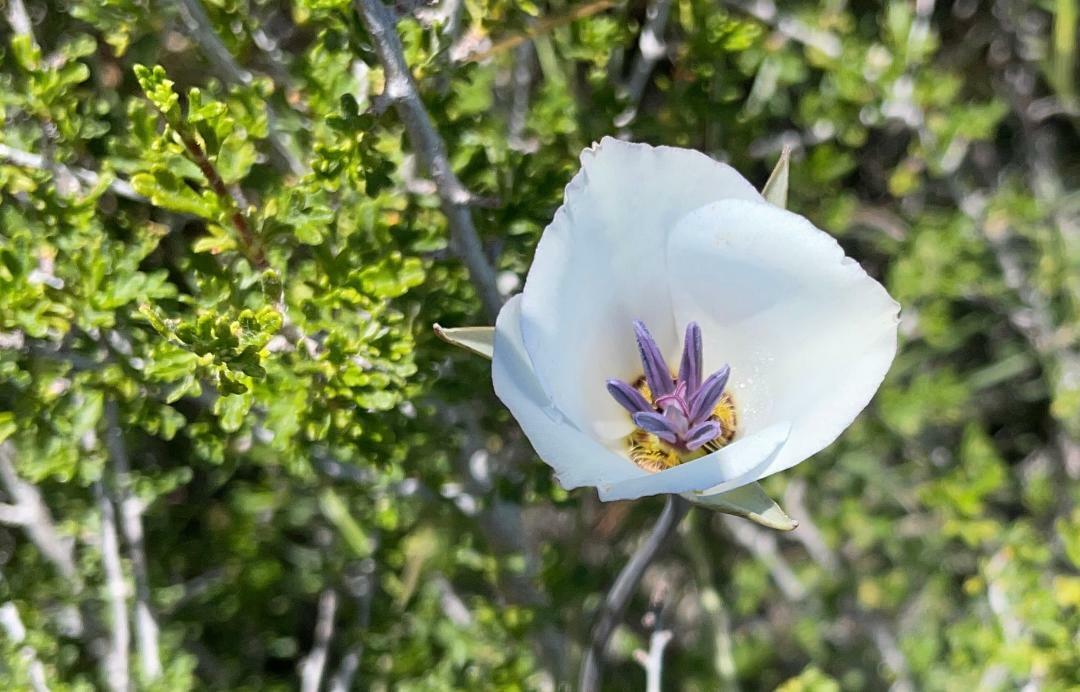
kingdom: Plantae
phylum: Tracheophyta
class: Liliopsida
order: Liliales
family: Liliaceae
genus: Calochortus
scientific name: Calochortus invenustus
